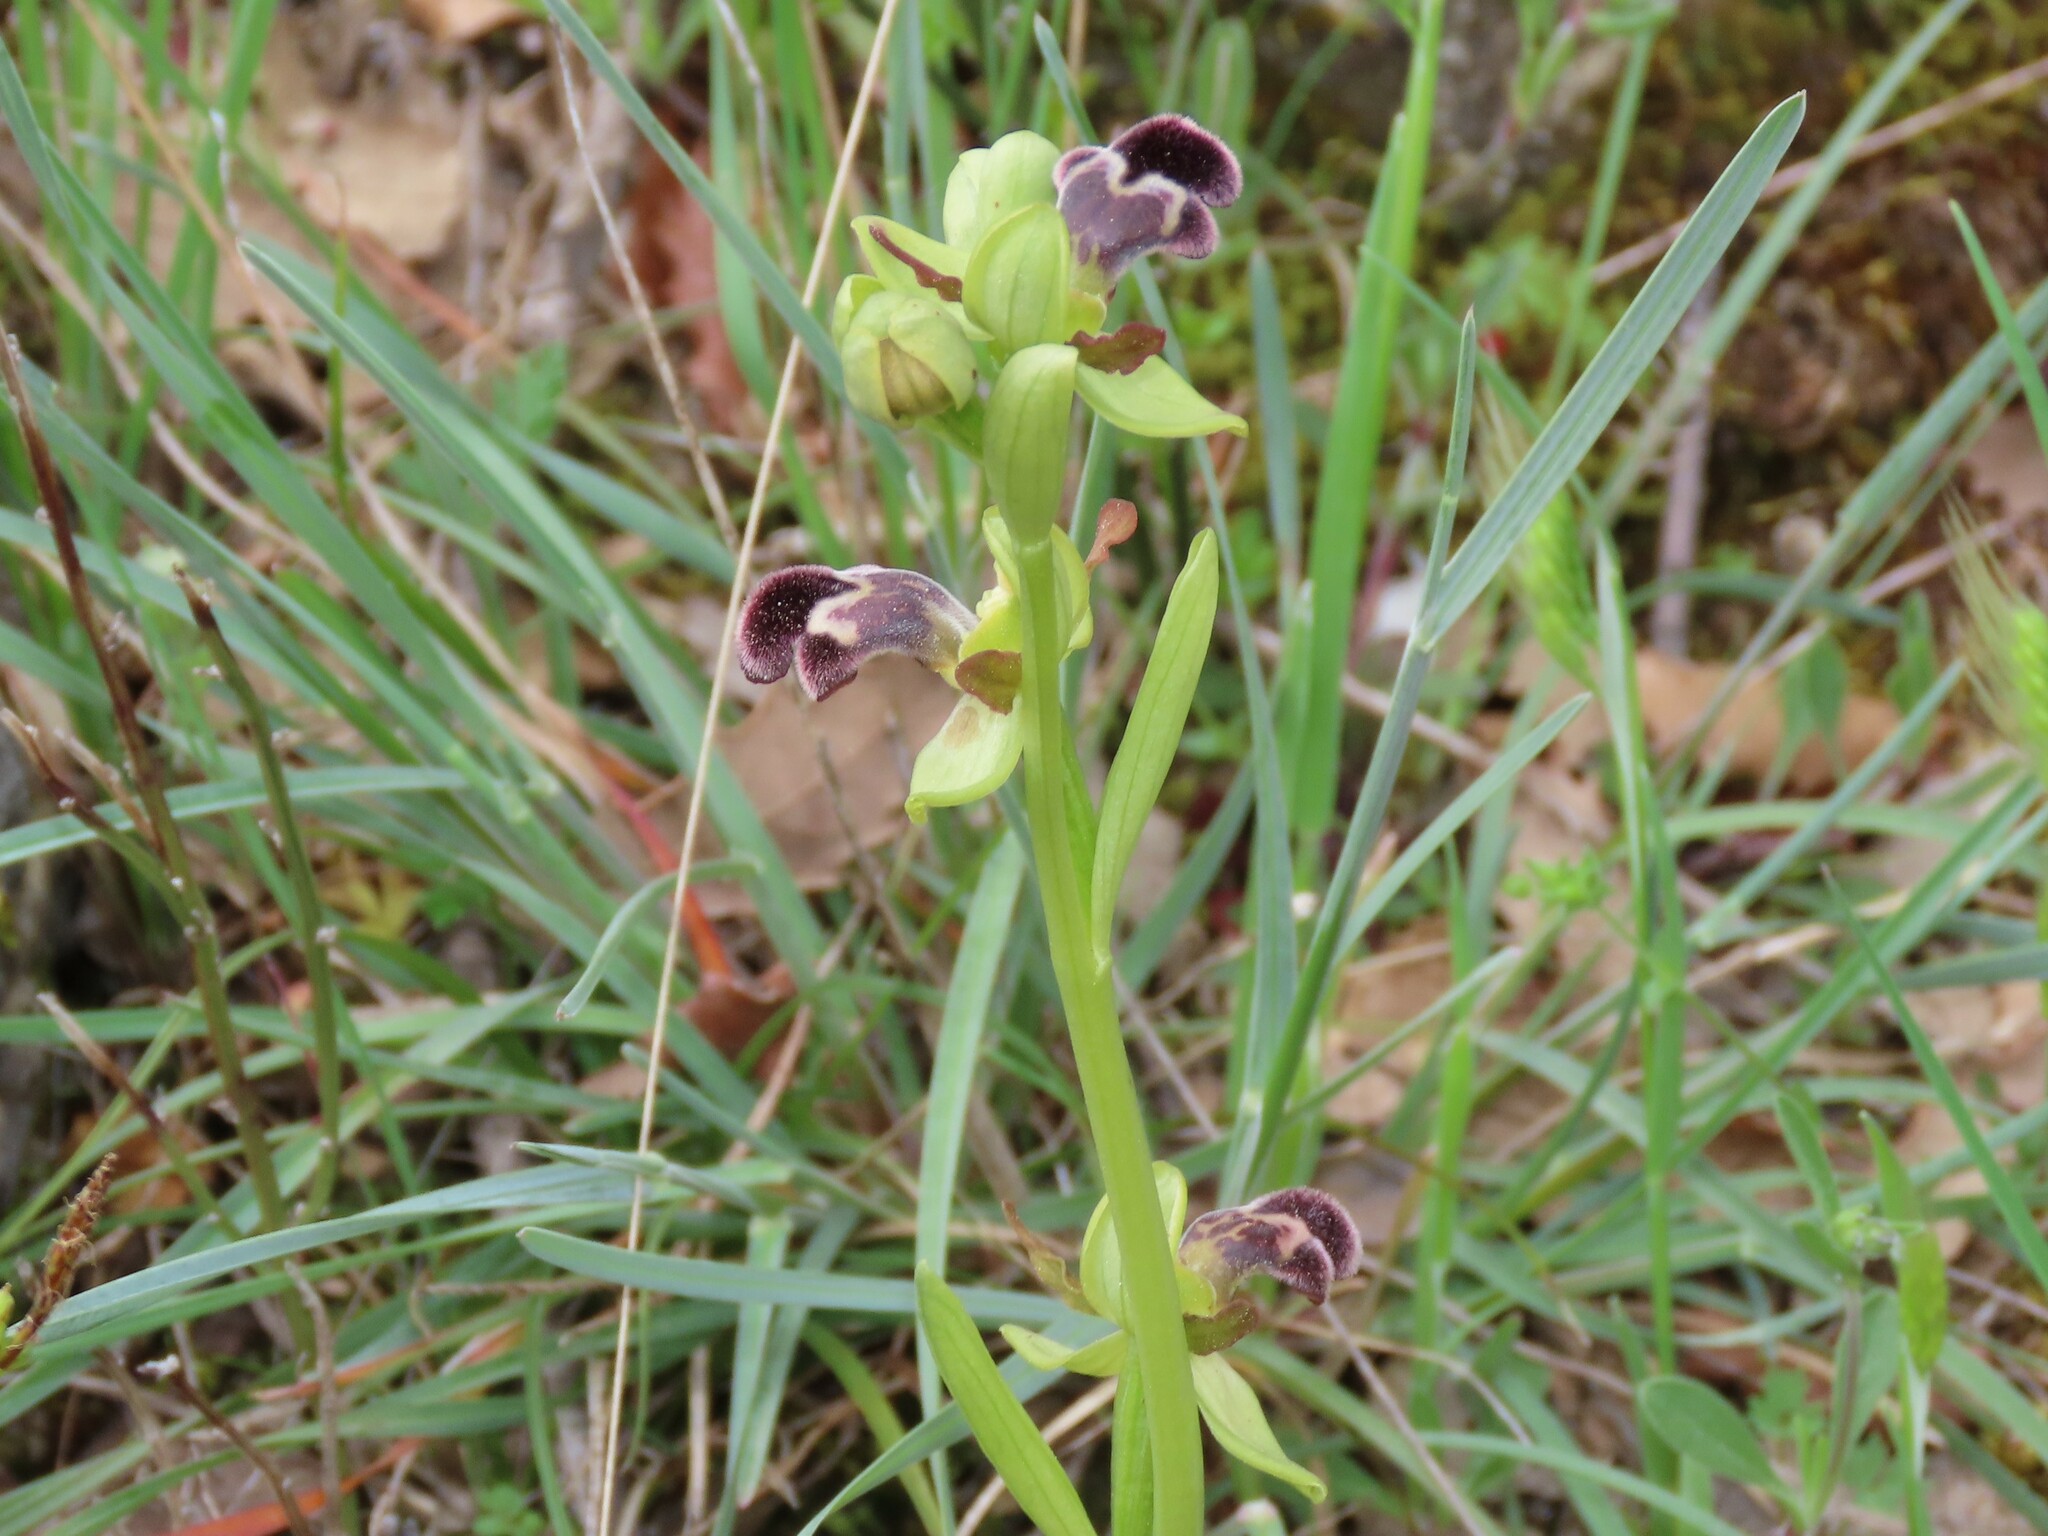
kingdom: Plantae
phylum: Tracheophyta
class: Liliopsida
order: Asparagales
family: Orchidaceae
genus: Ophrys
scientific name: Ophrys omegaifera
